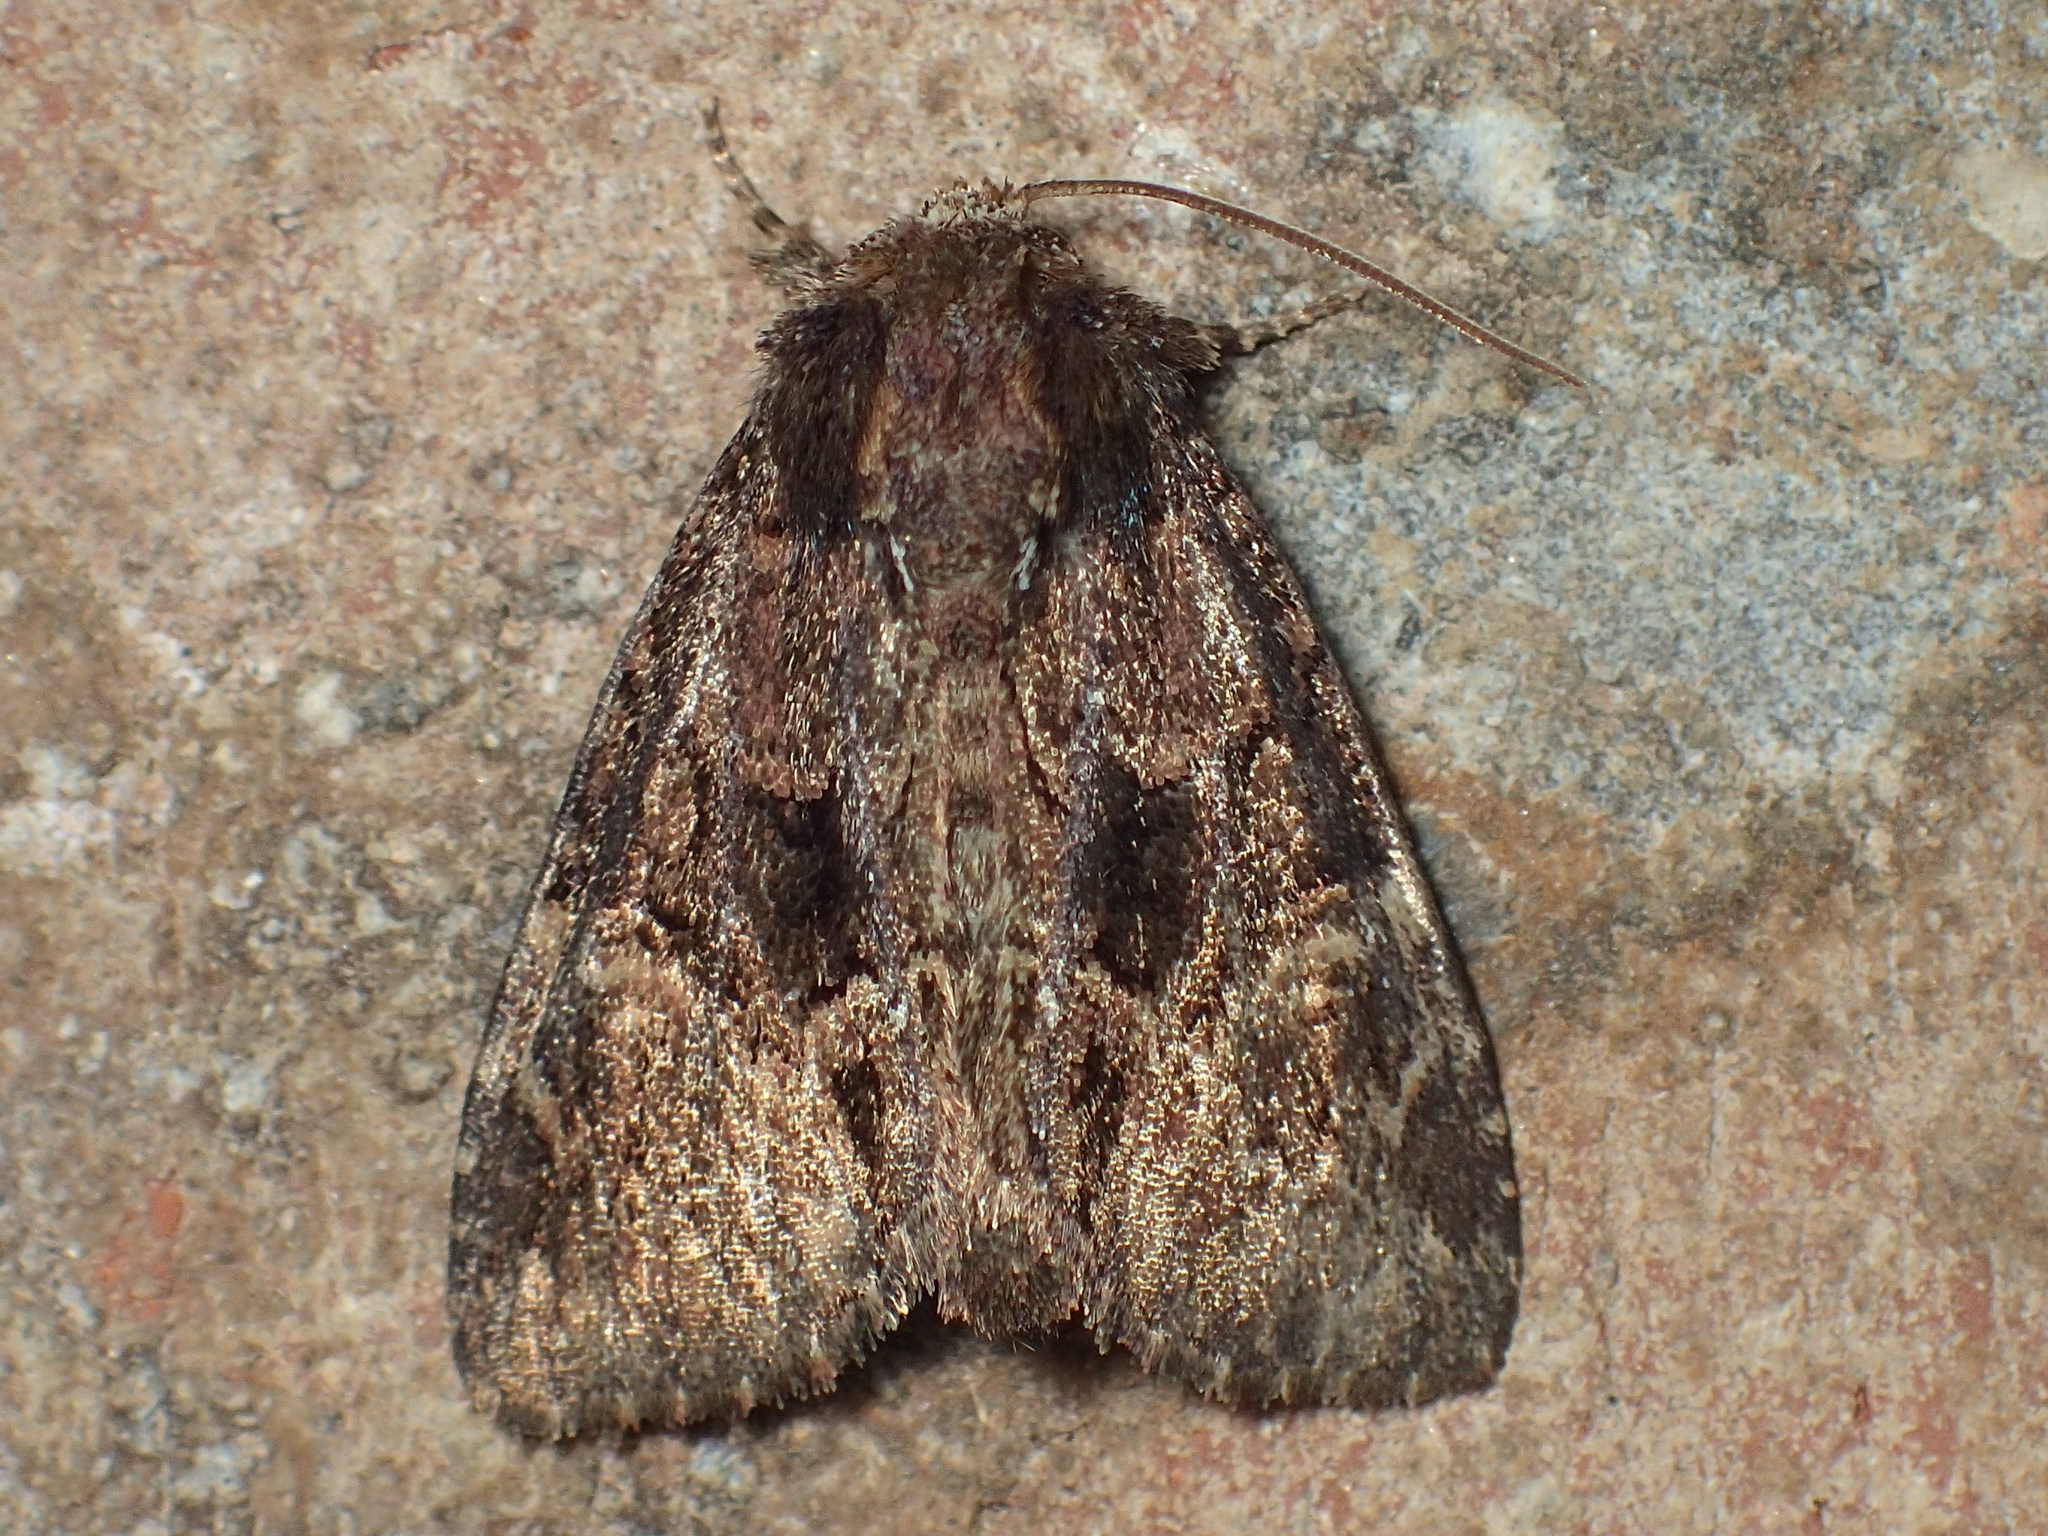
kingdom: Animalia
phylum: Arthropoda
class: Insecta
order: Lepidoptera
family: Noctuidae
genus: Phosphila
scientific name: Phosphila turbulenta
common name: Turbulent phosphila moth
